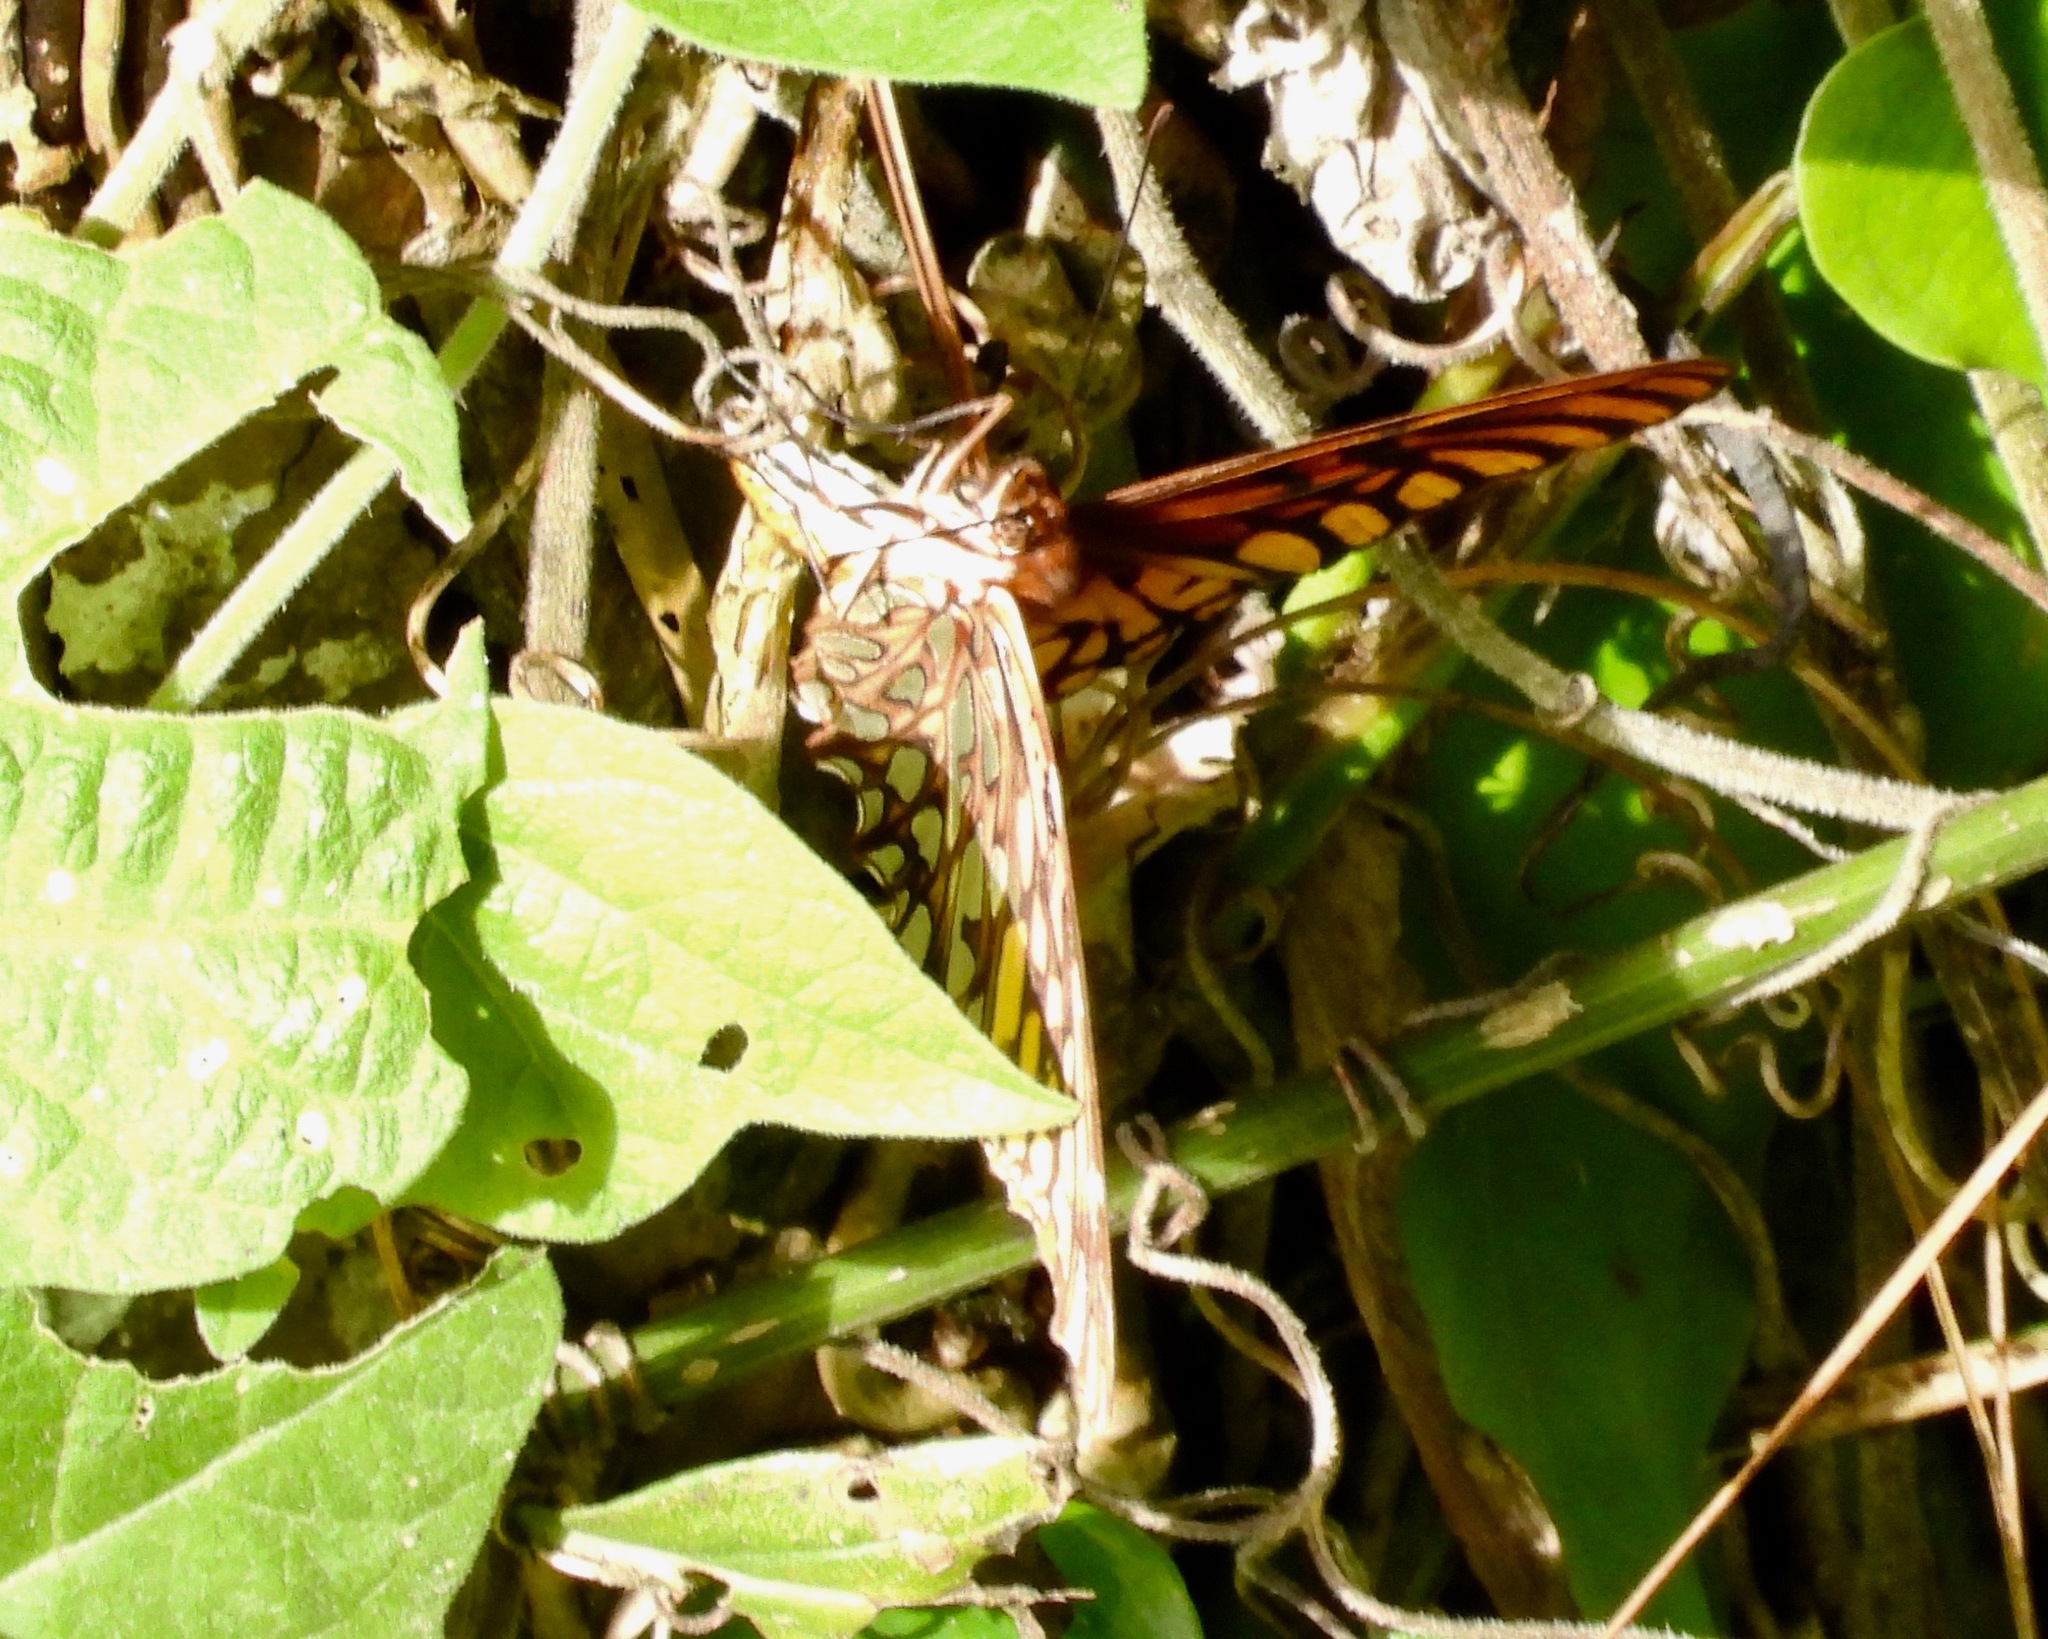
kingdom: Animalia
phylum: Arthropoda
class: Insecta
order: Lepidoptera
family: Nymphalidae
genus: Dione
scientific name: Dione moneta
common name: Mexican silverspot
